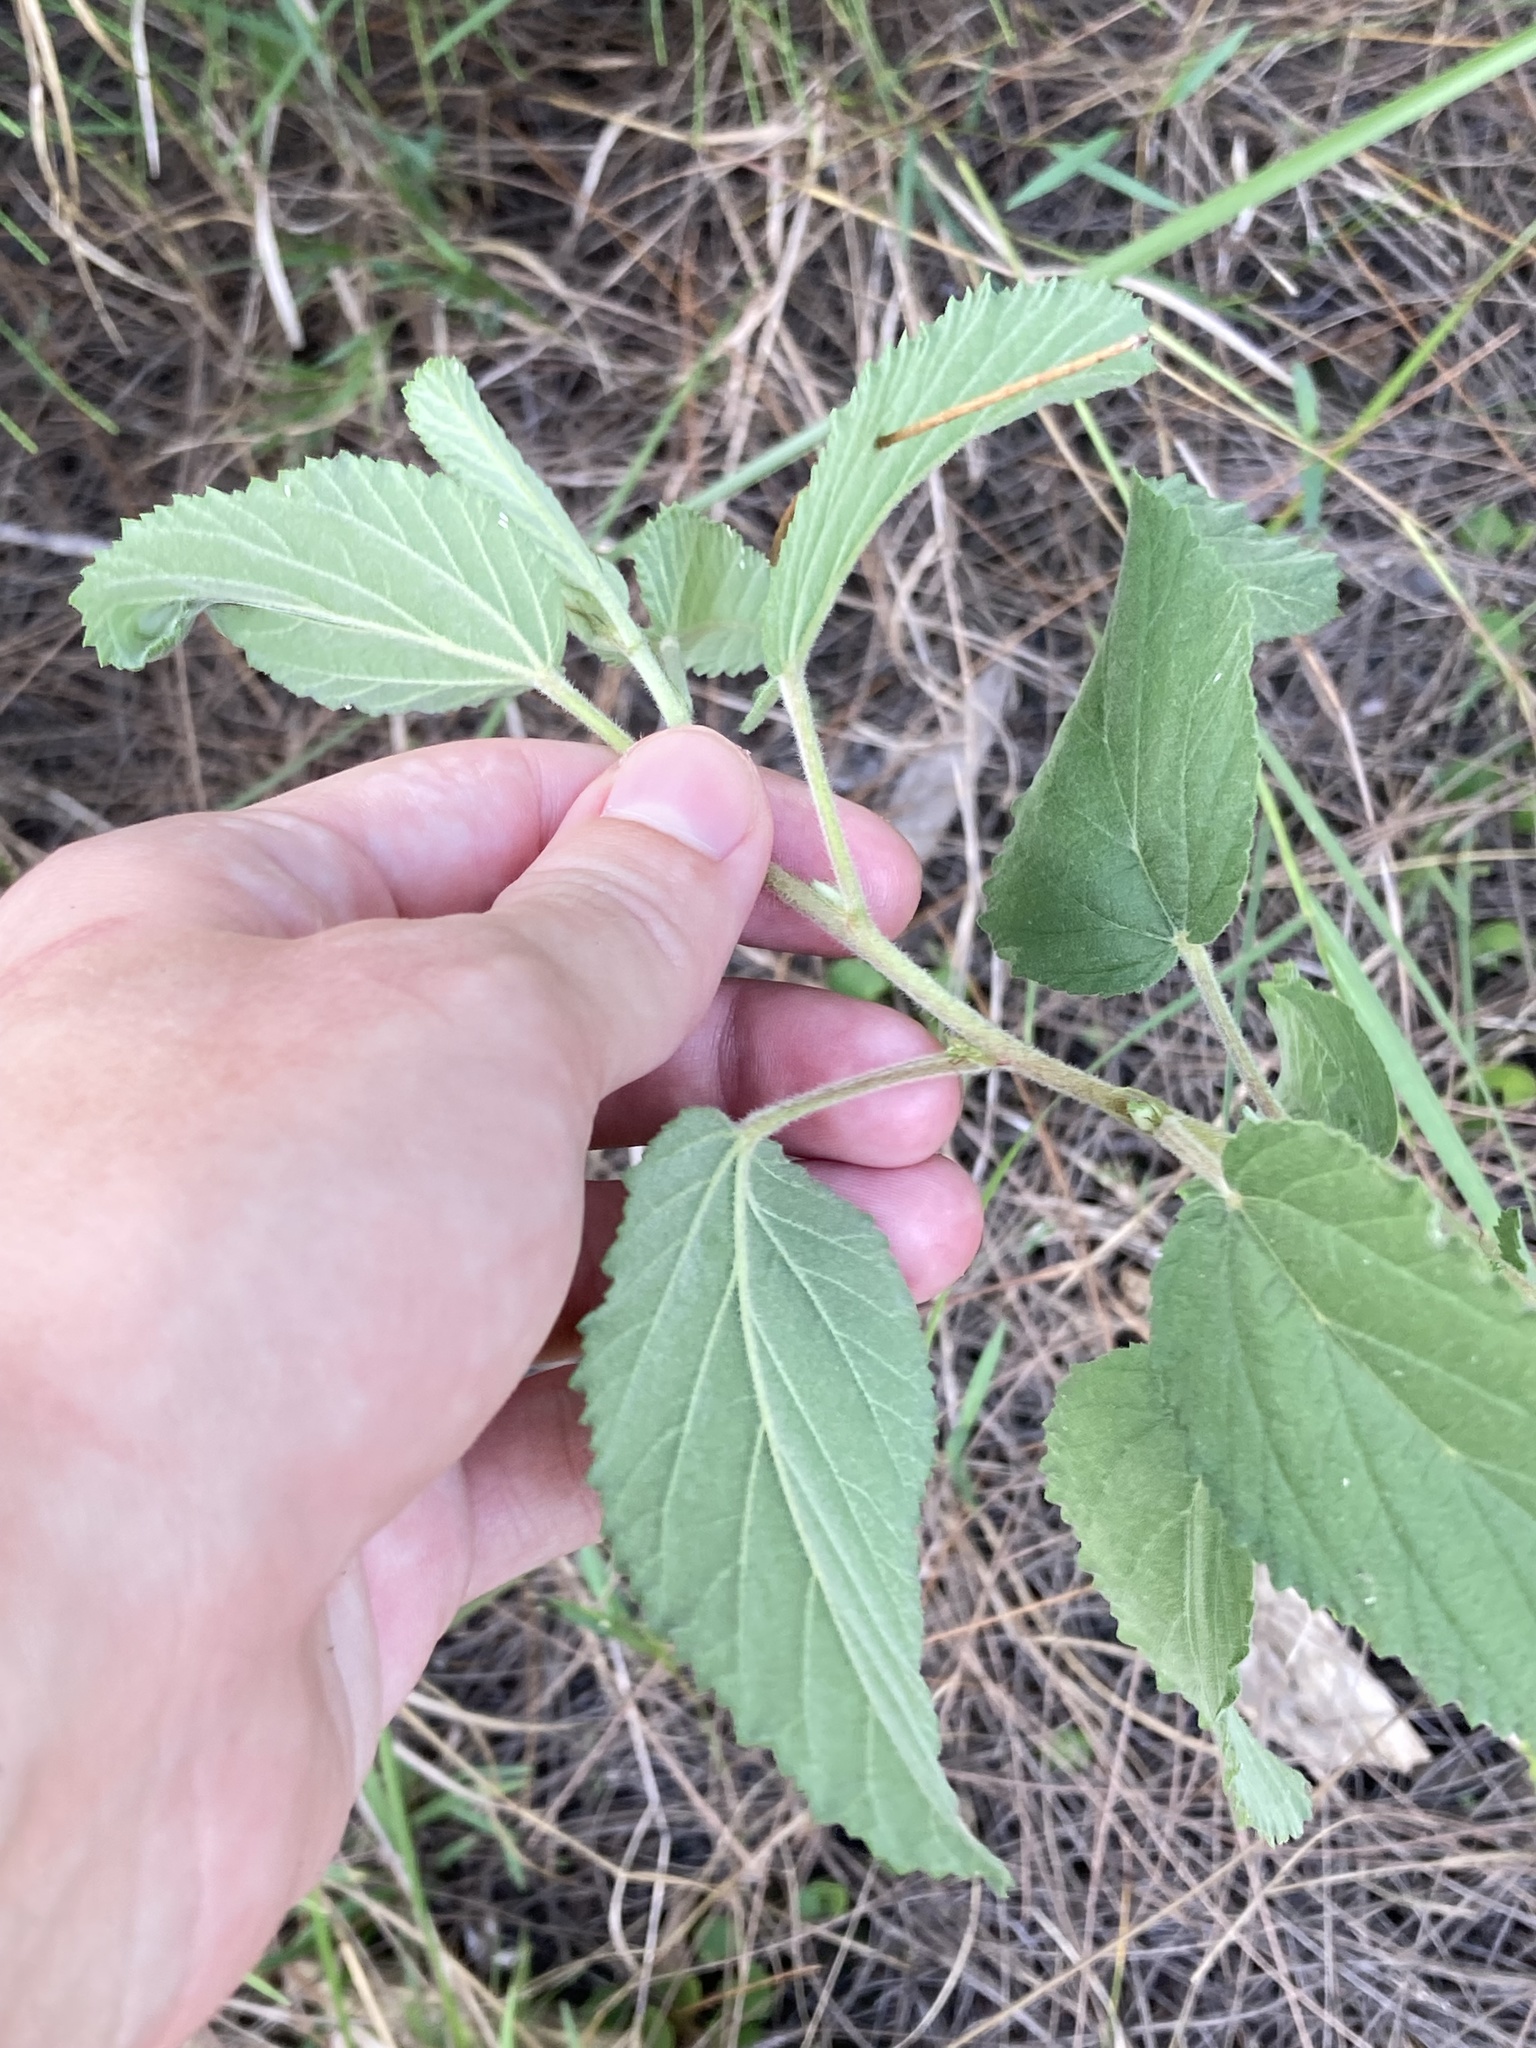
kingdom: Plantae
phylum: Tracheophyta
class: Magnoliopsida
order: Malvales
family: Malvaceae
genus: Waltheria
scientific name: Waltheria indica
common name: Leather-coat
